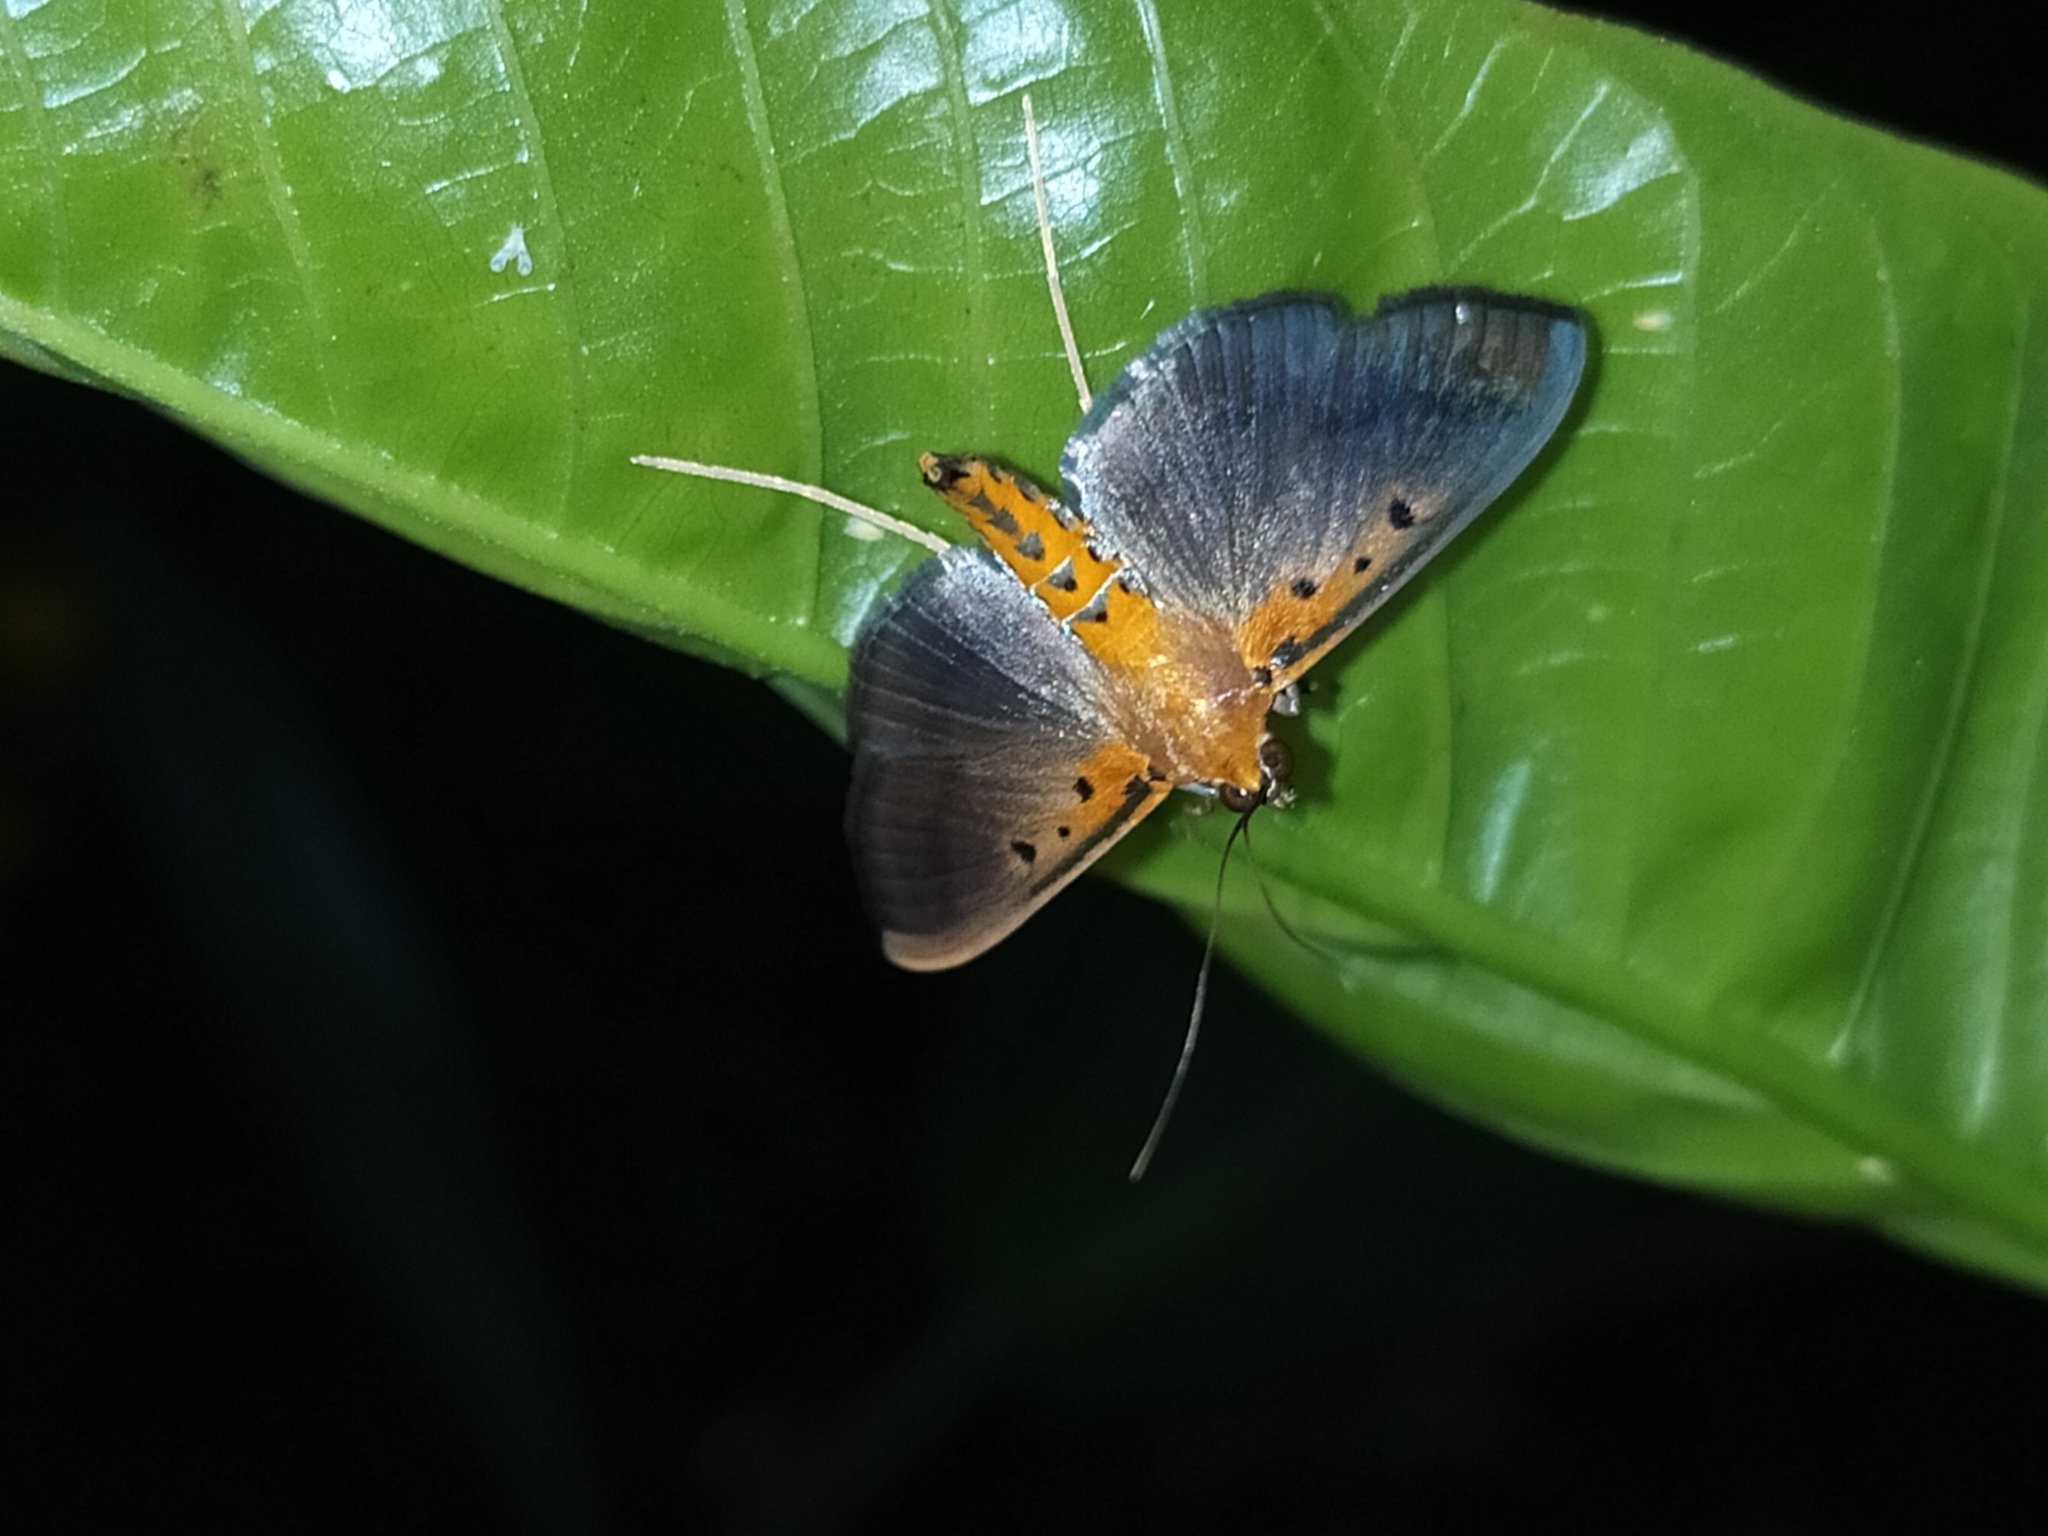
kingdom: Animalia
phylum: Arthropoda
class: Insecta
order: Lepidoptera
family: Crambidae
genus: Filodes
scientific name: Filodes fulvidorsalis
